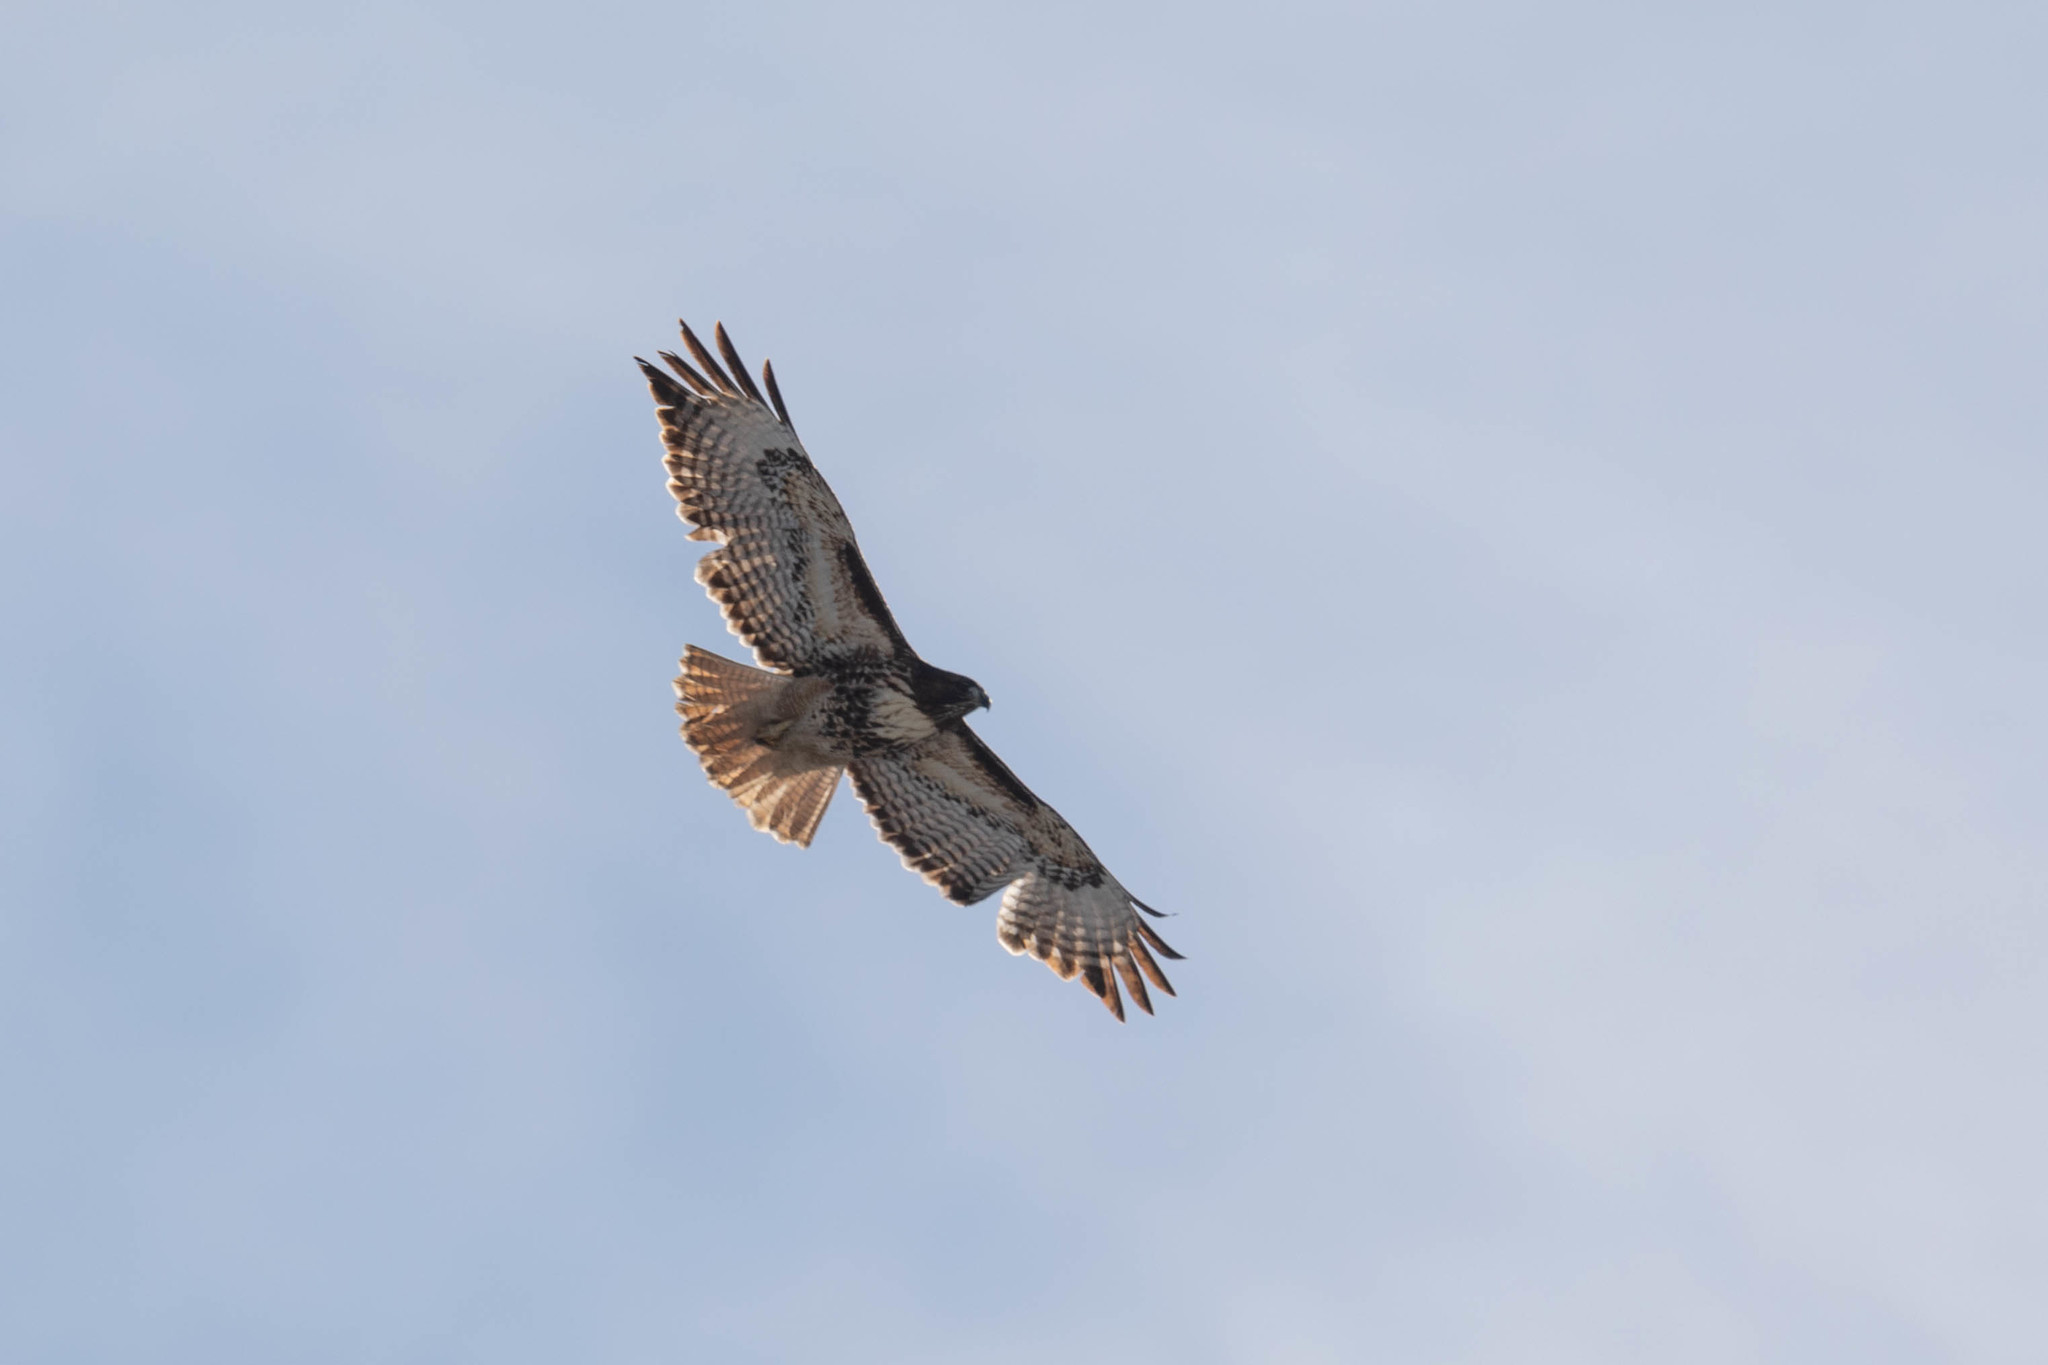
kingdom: Animalia
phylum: Chordata
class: Aves
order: Accipitriformes
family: Accipitridae
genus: Buteo
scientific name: Buteo jamaicensis
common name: Red-tailed hawk
